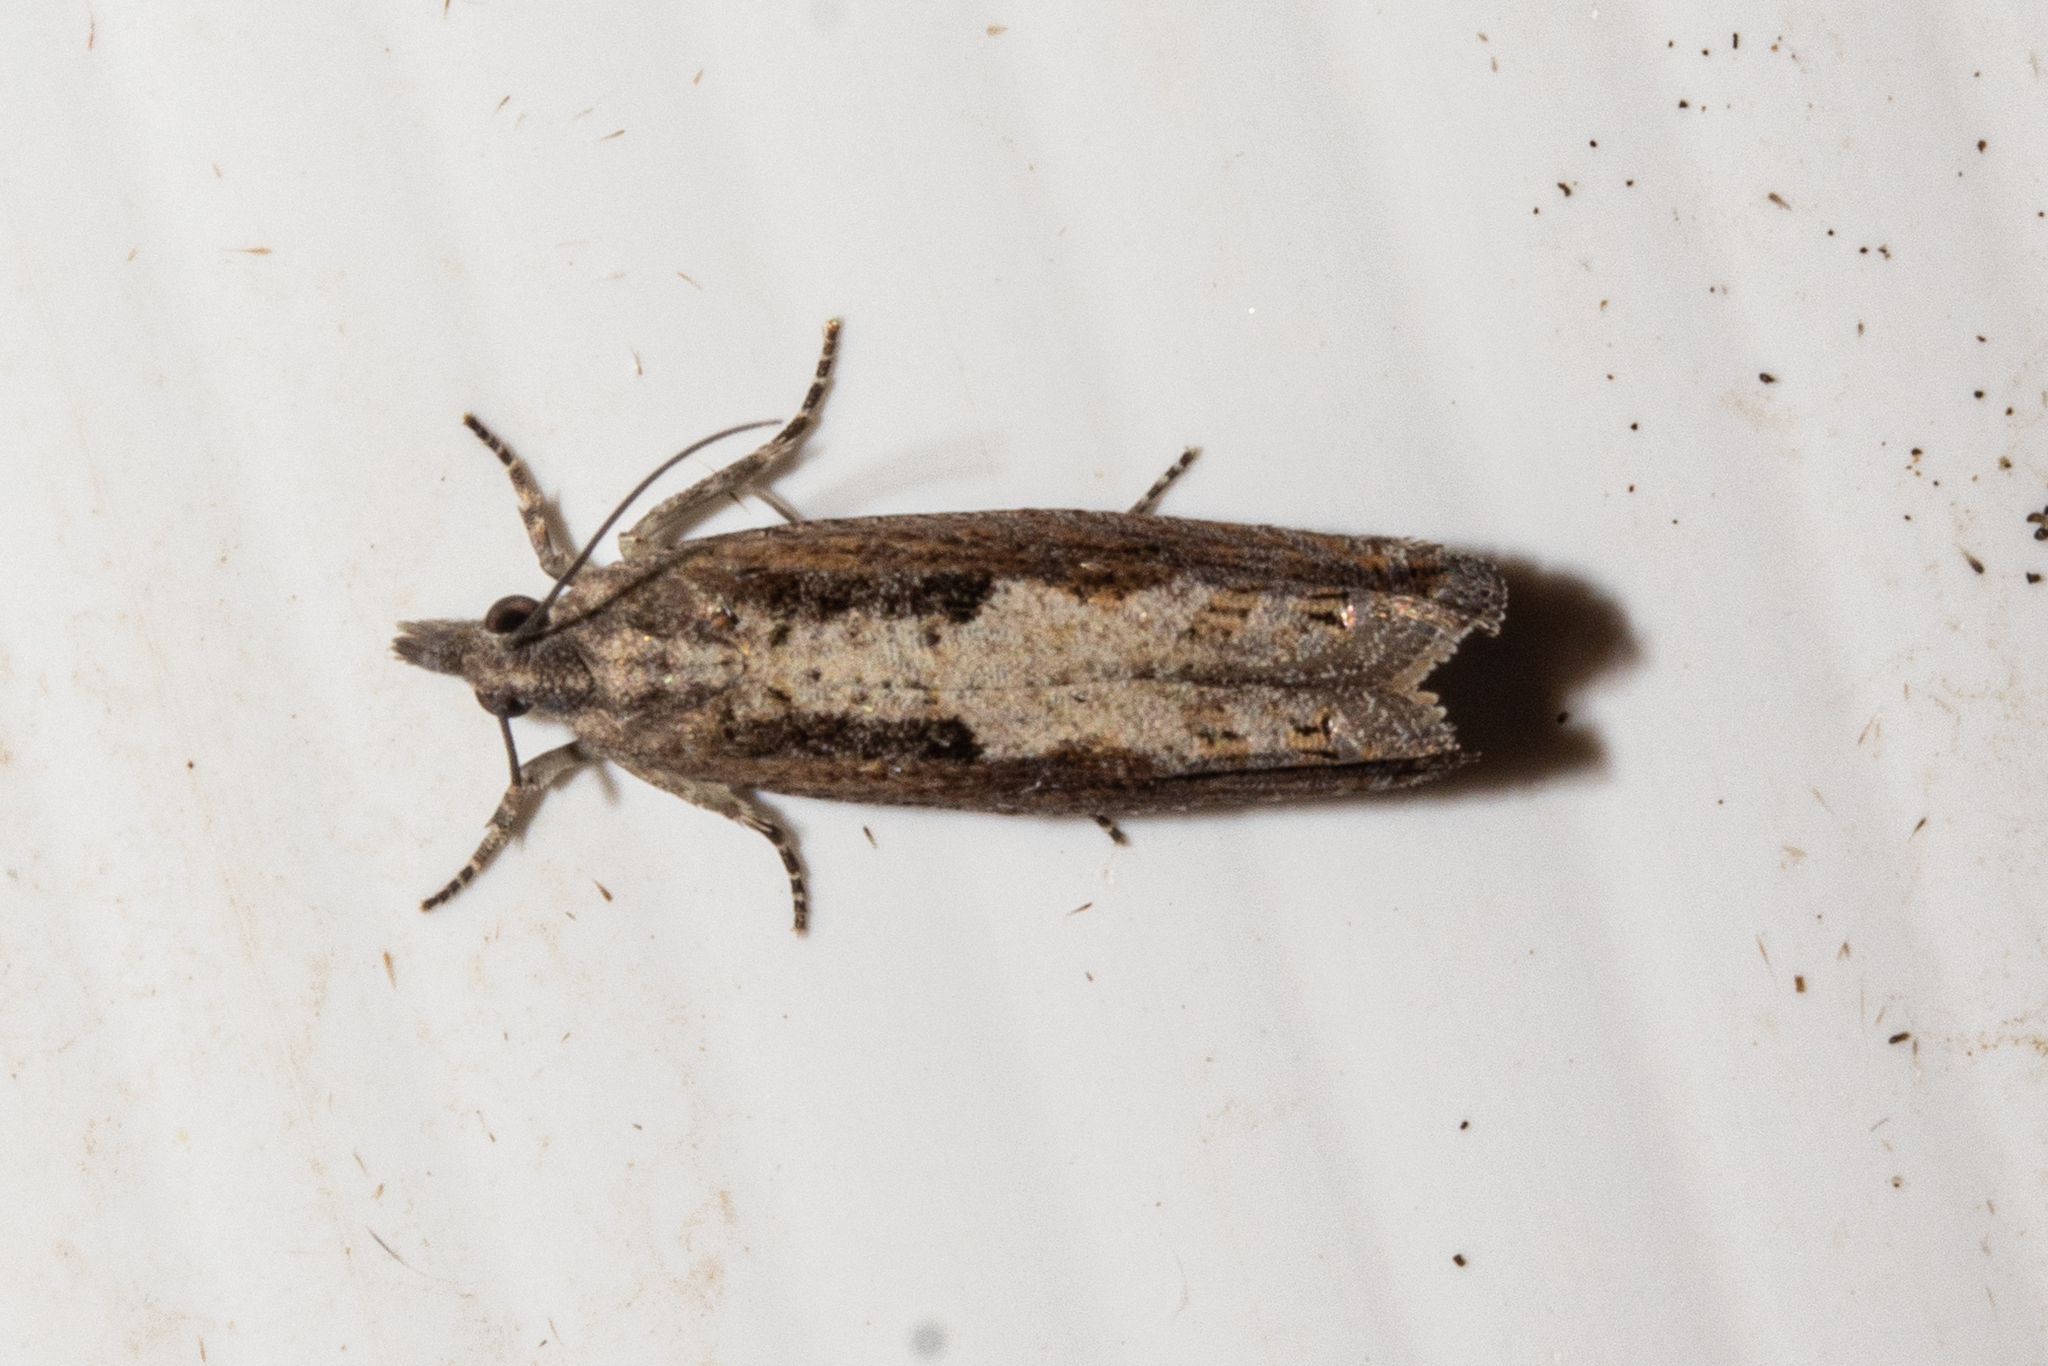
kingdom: Animalia
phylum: Arthropoda
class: Insecta
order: Lepidoptera
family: Tortricidae
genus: Strepsicrates
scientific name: Strepsicrates macropetana
